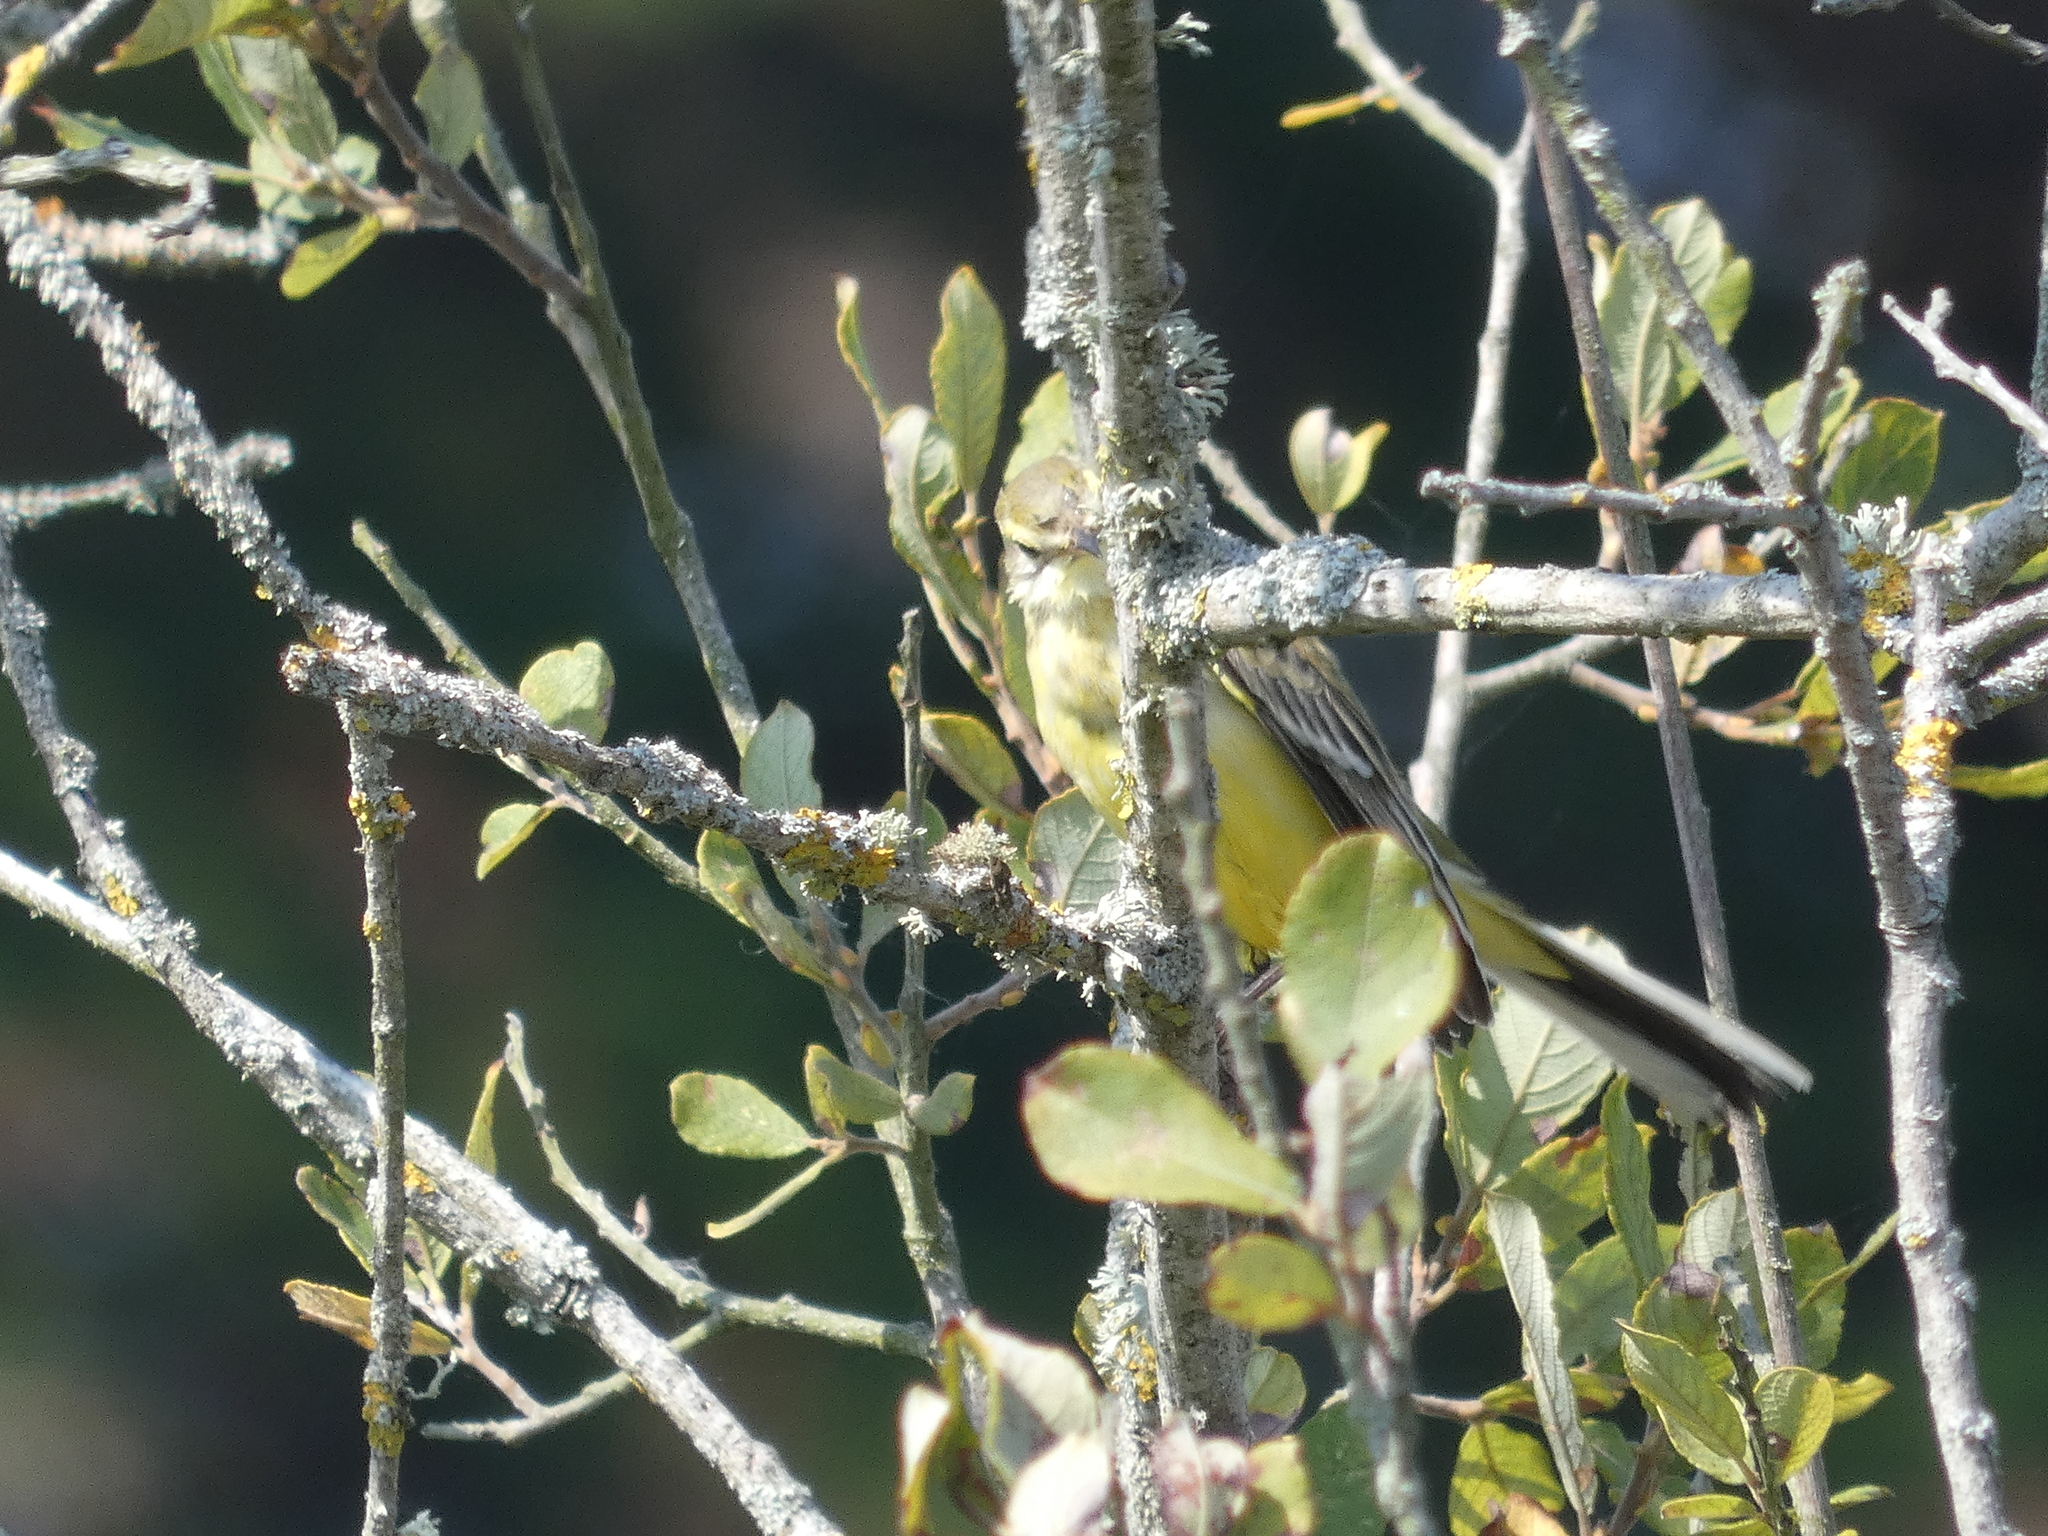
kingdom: Animalia
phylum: Chordata
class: Aves
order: Passeriformes
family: Motacillidae
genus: Motacilla
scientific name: Motacilla flava
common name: Western yellow wagtail
